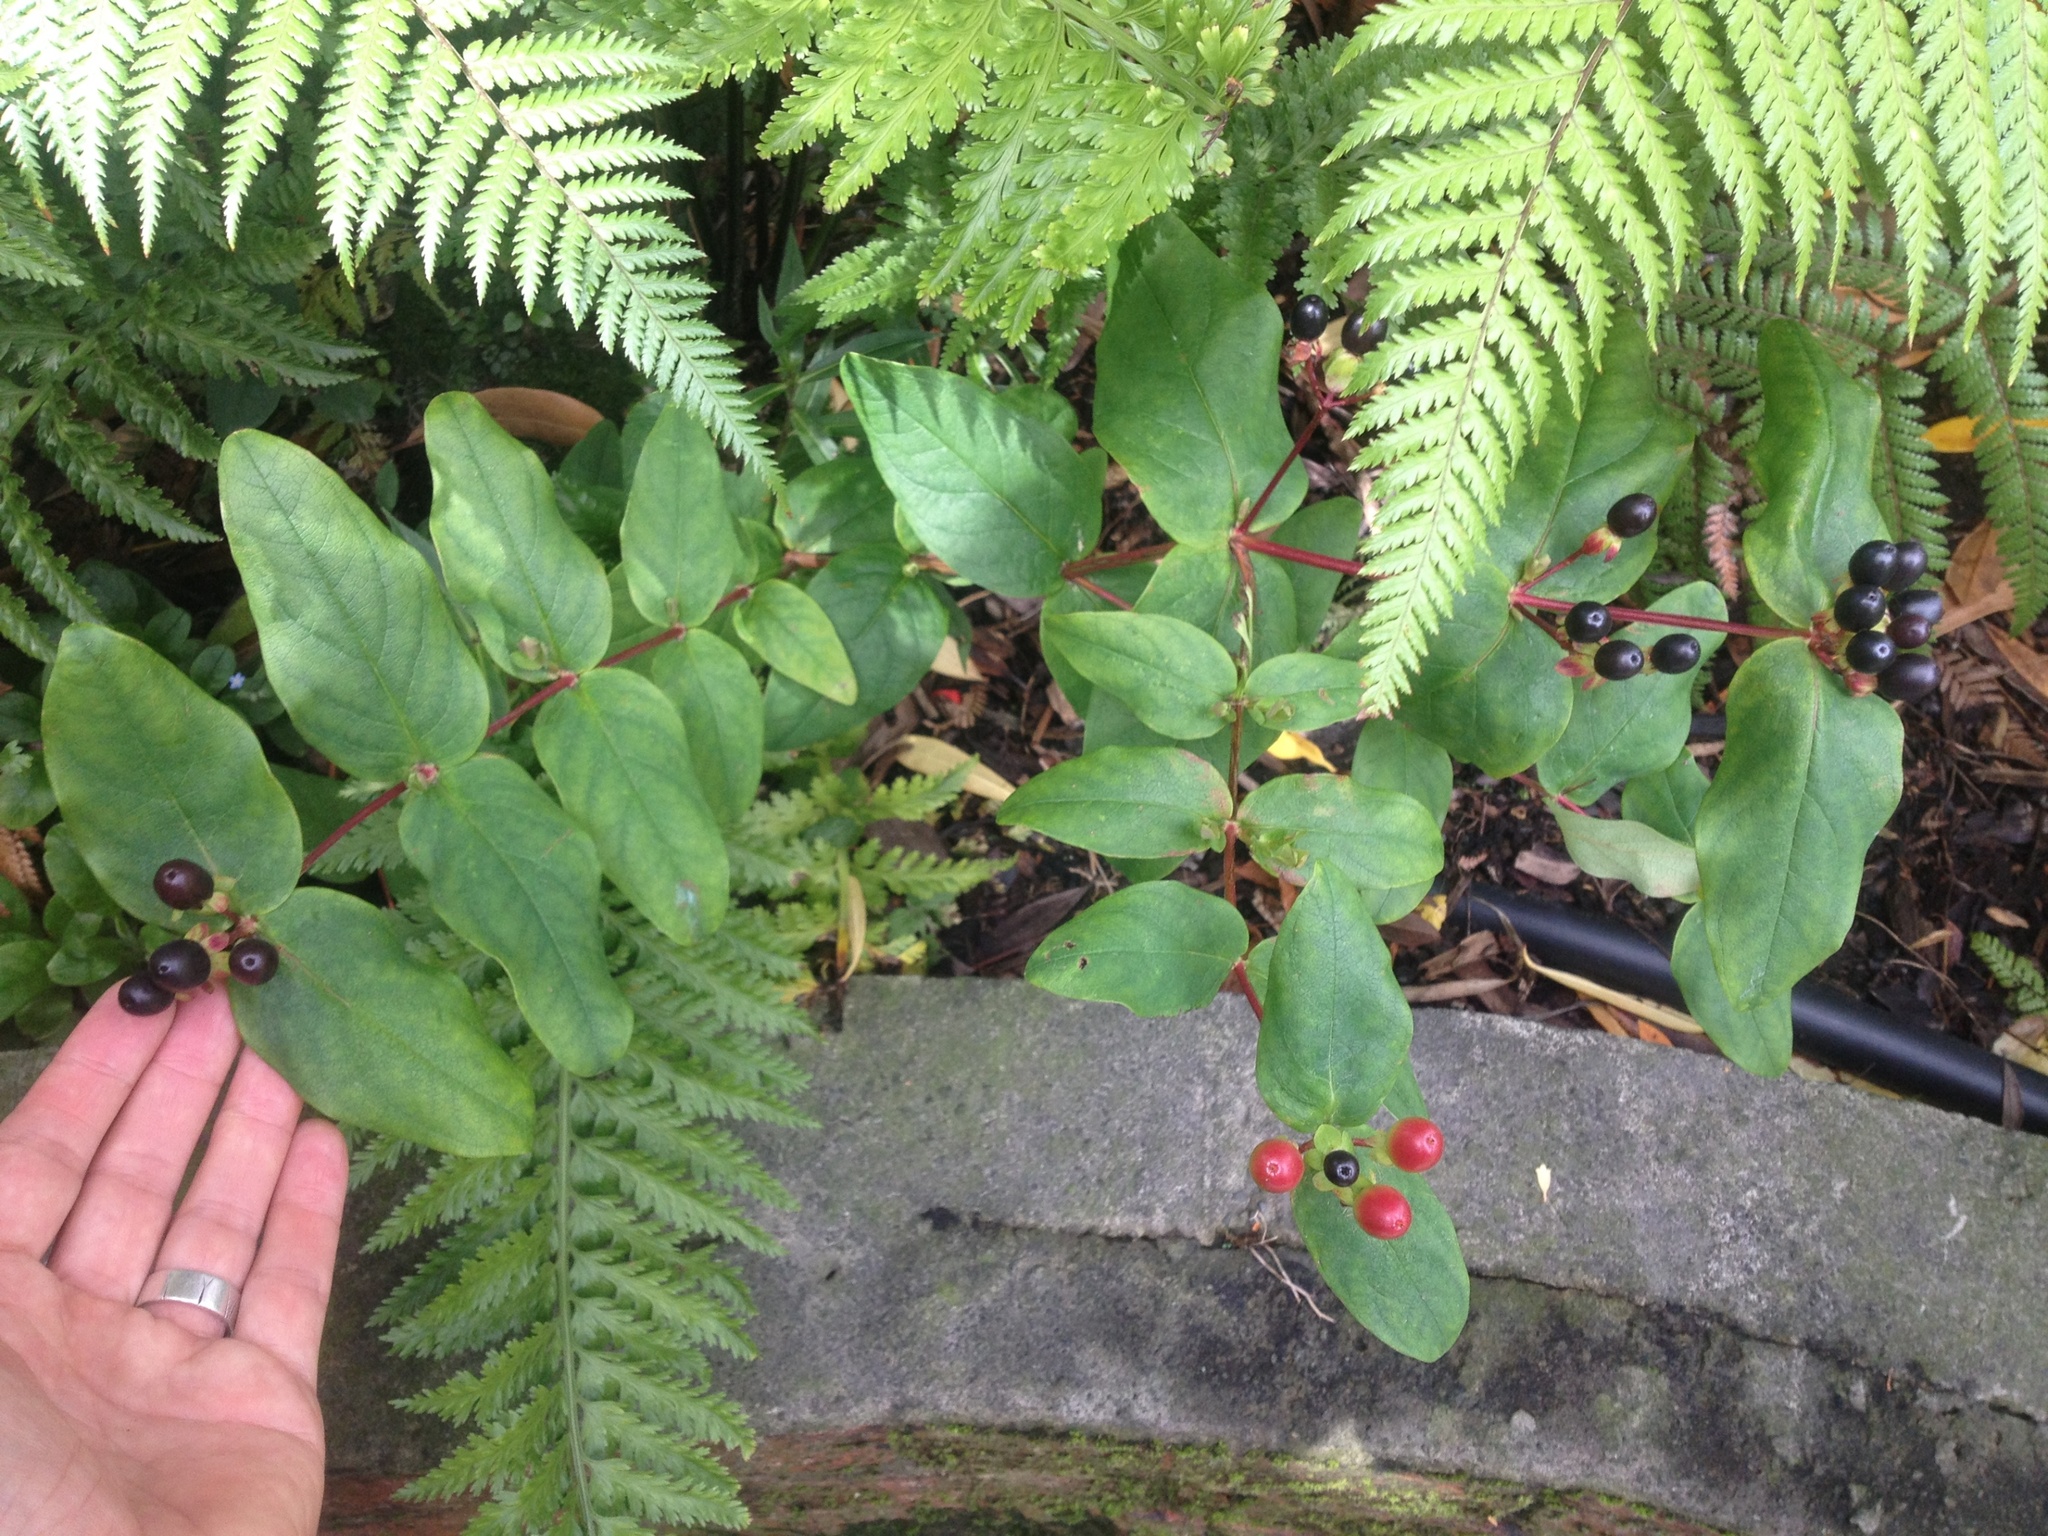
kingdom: Plantae
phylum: Tracheophyta
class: Magnoliopsida
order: Malpighiales
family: Hypericaceae
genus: Hypericum
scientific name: Hypericum androsaemum
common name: Sweet-amber
